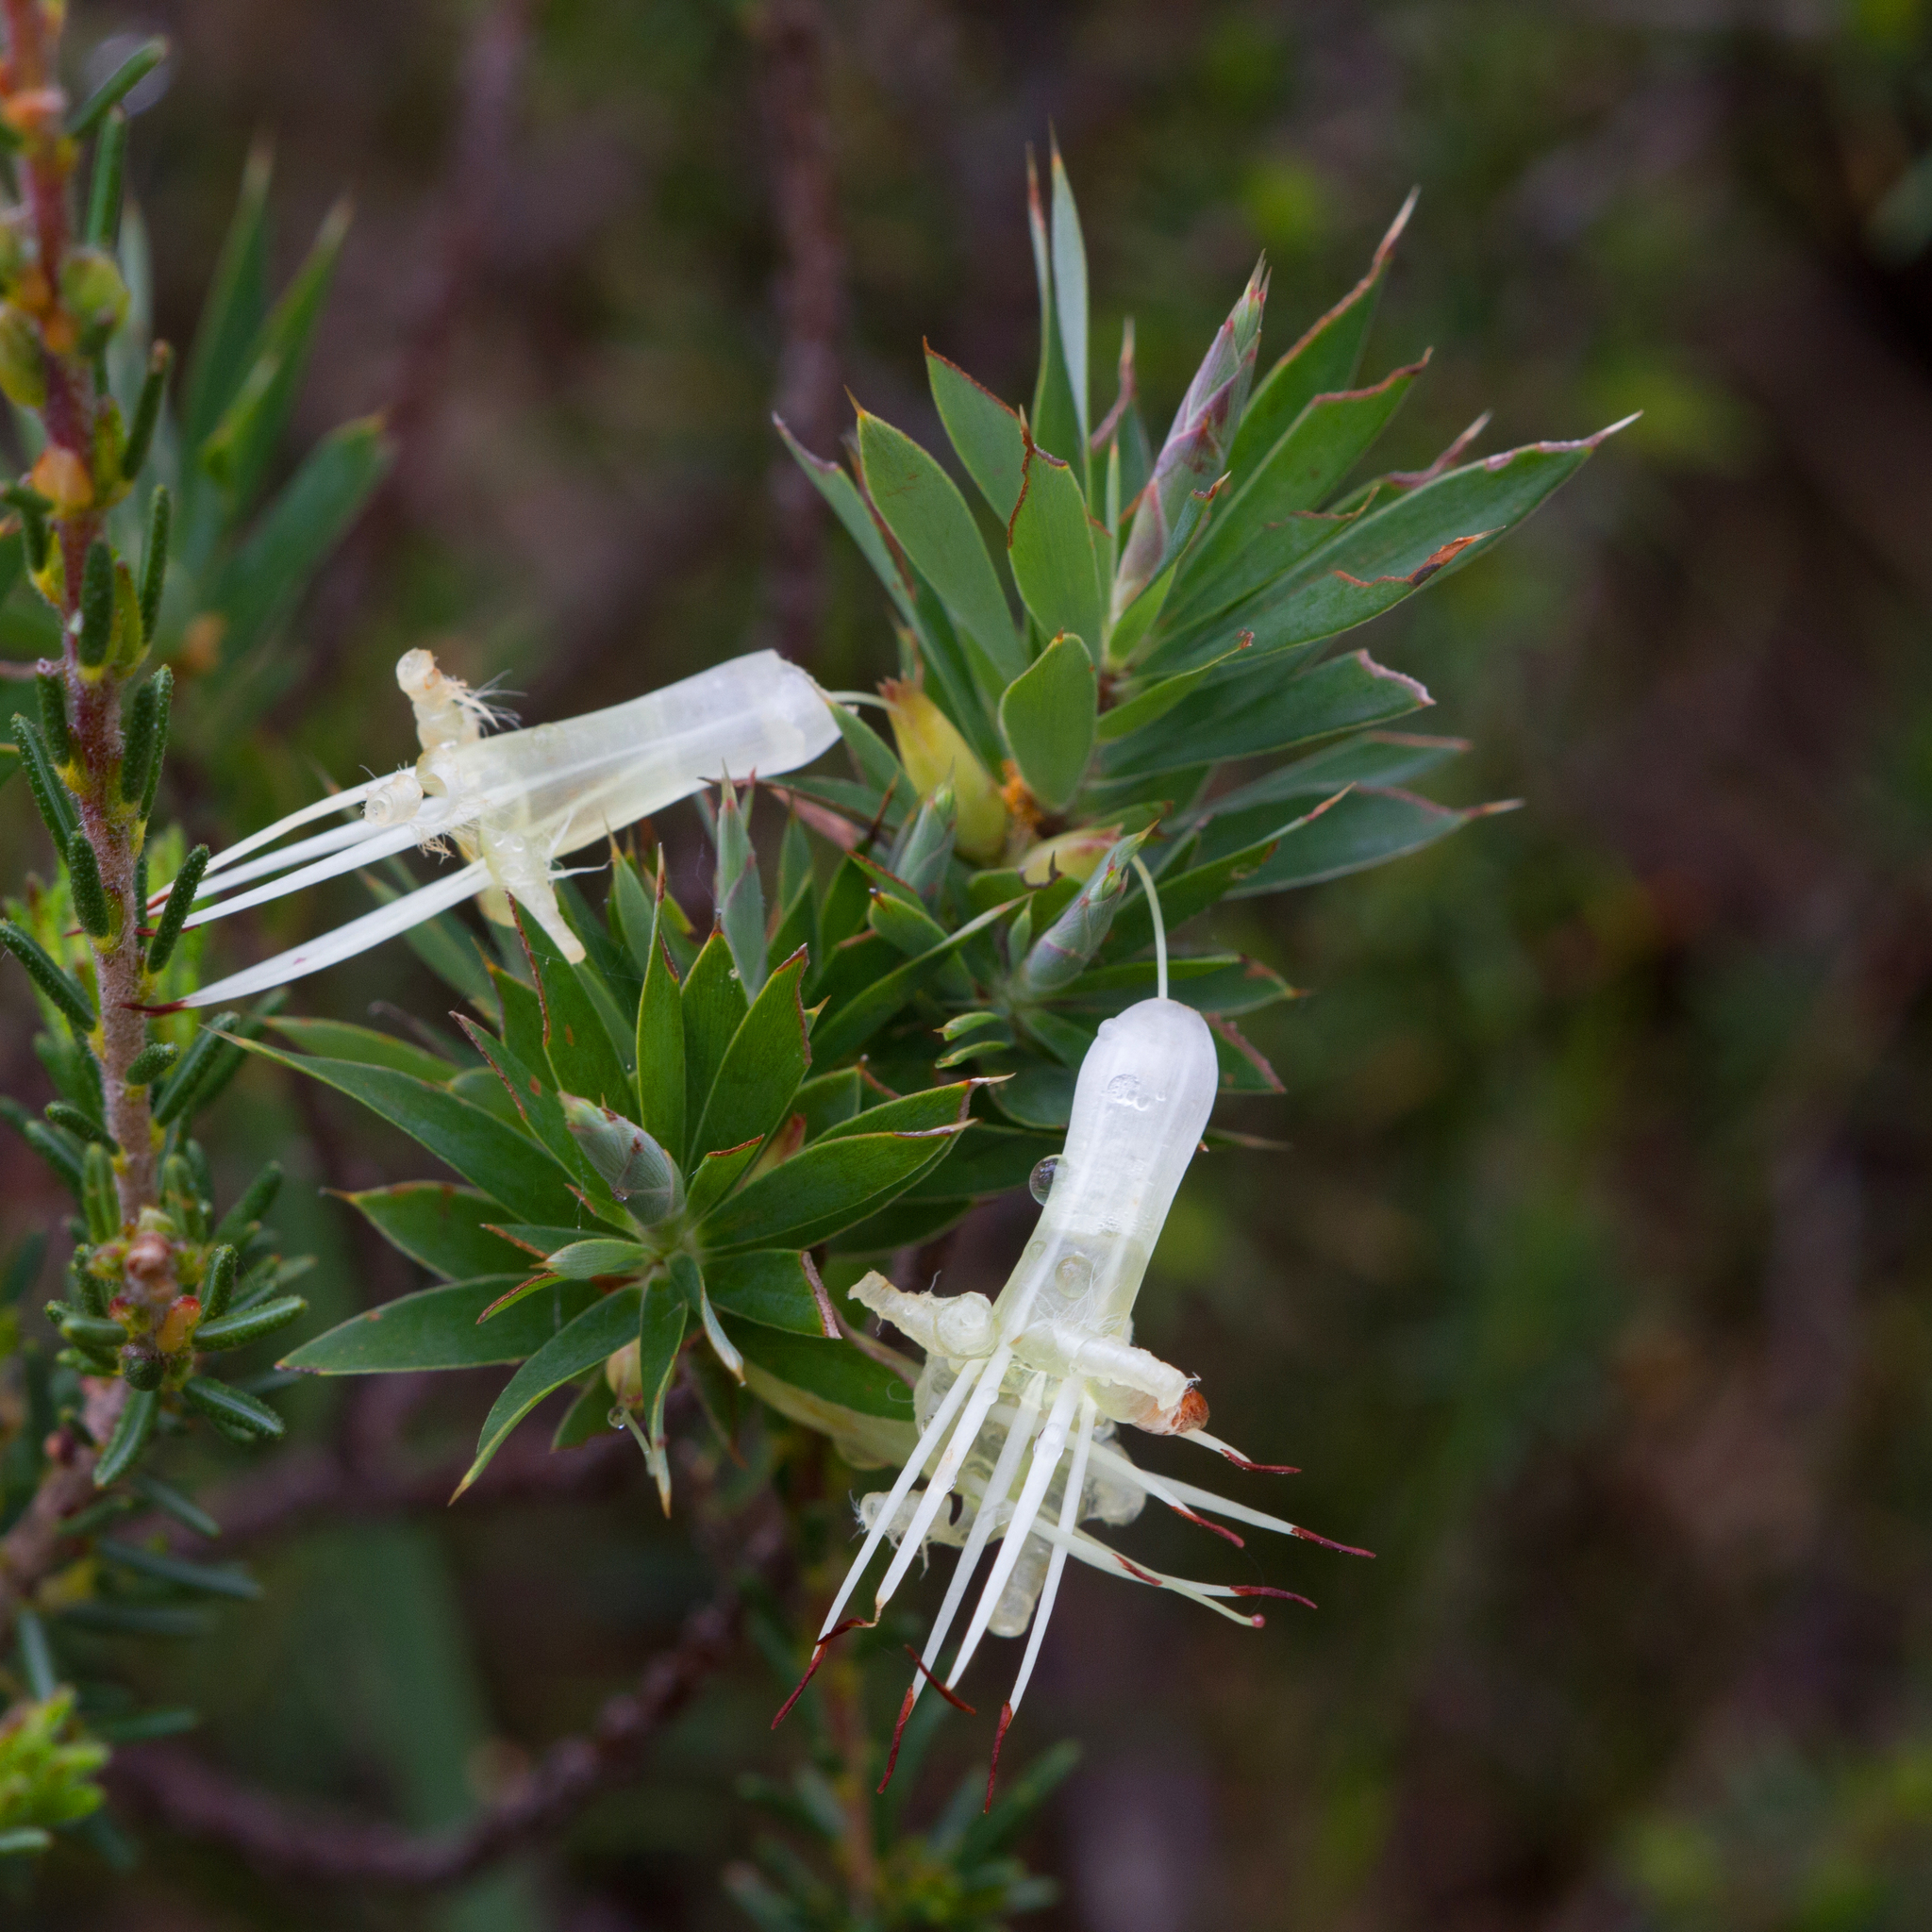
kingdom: Plantae
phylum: Tracheophyta
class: Magnoliopsida
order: Ericales
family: Ericaceae
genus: Styphelia
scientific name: Styphelia adscendens
